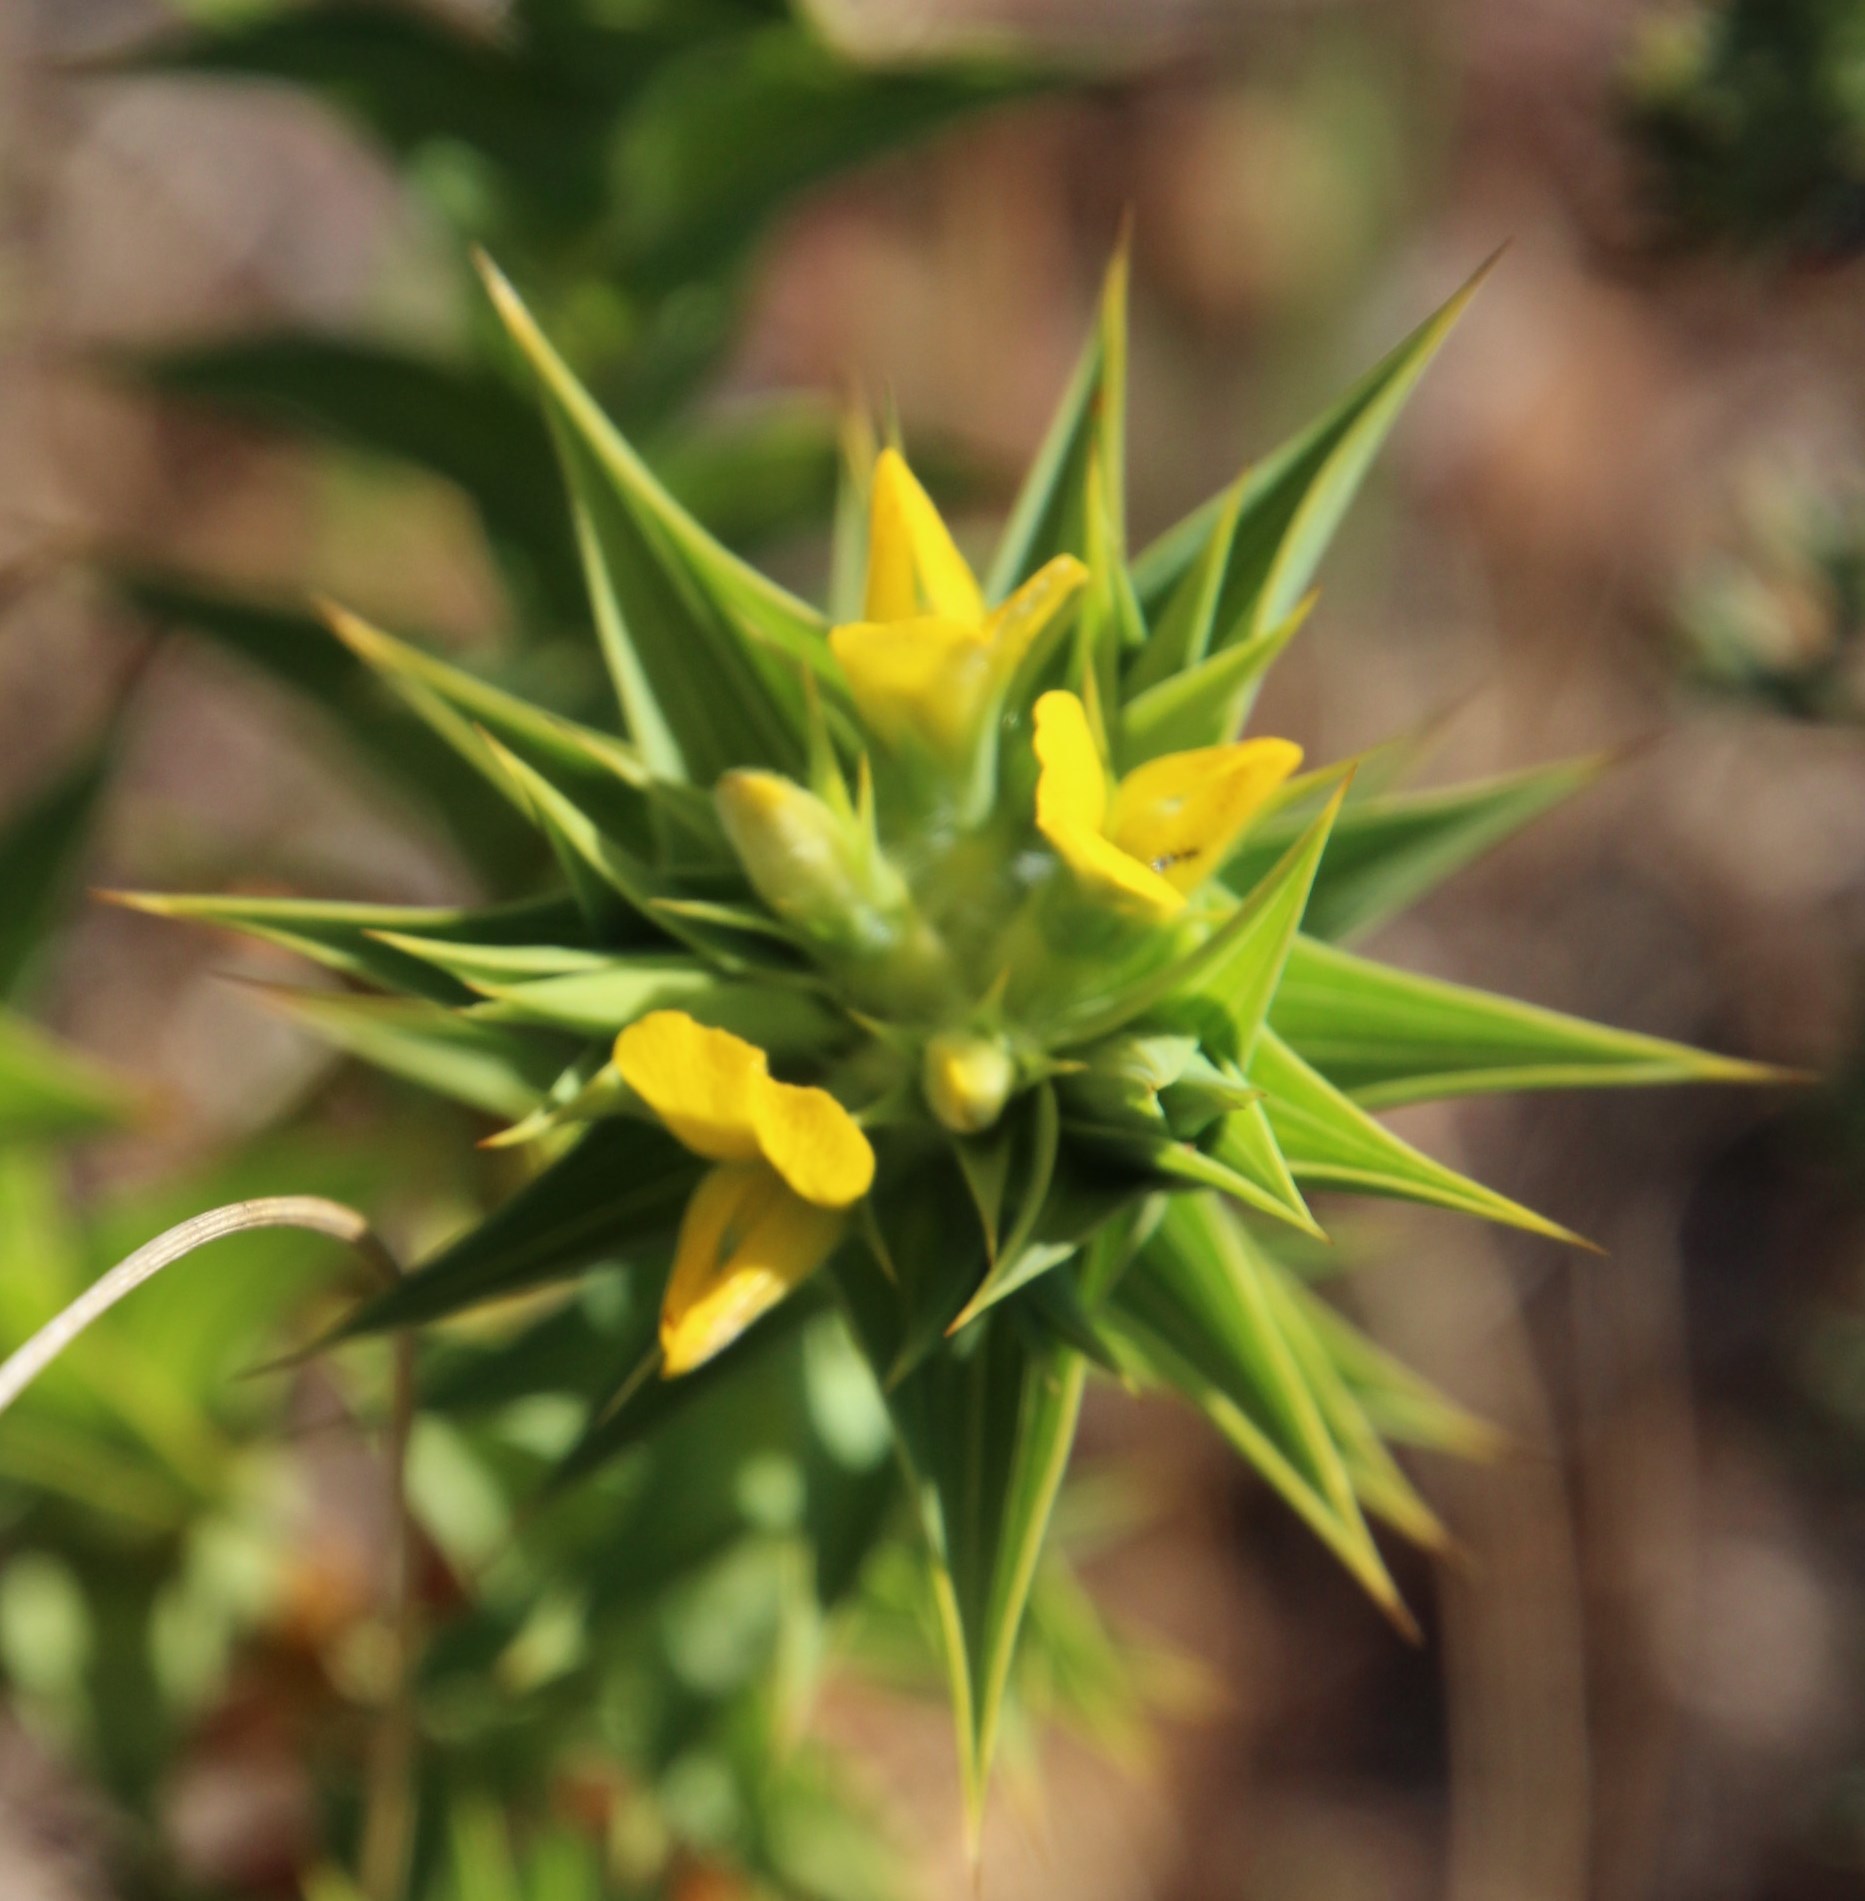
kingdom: Plantae
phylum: Tracheophyta
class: Magnoliopsida
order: Fabales
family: Fabaceae
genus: Aspalathus
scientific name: Aspalathus cordata
